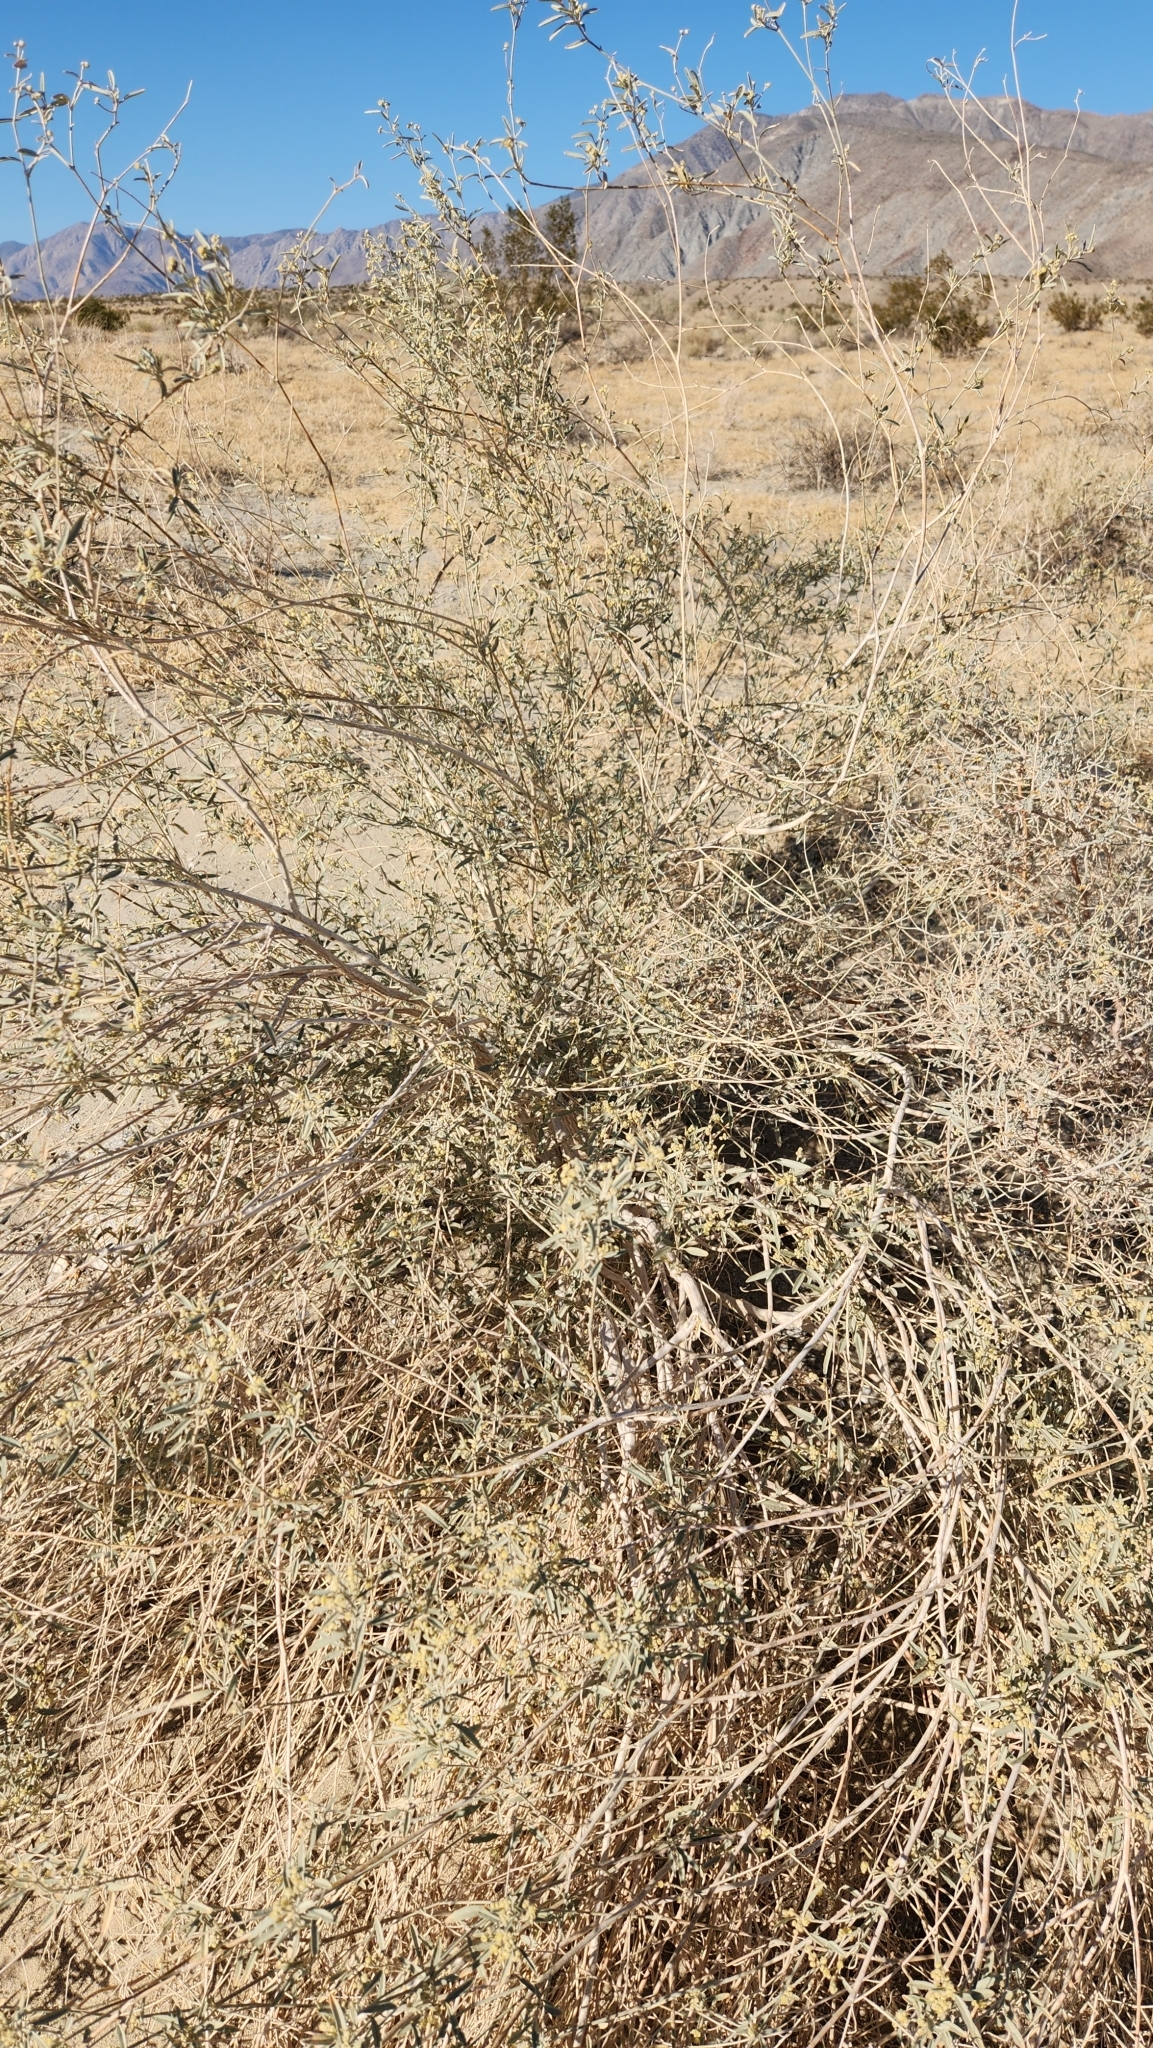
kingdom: Plantae
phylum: Tracheophyta
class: Magnoliopsida
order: Malpighiales
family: Euphorbiaceae
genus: Croton
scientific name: Croton californicus
